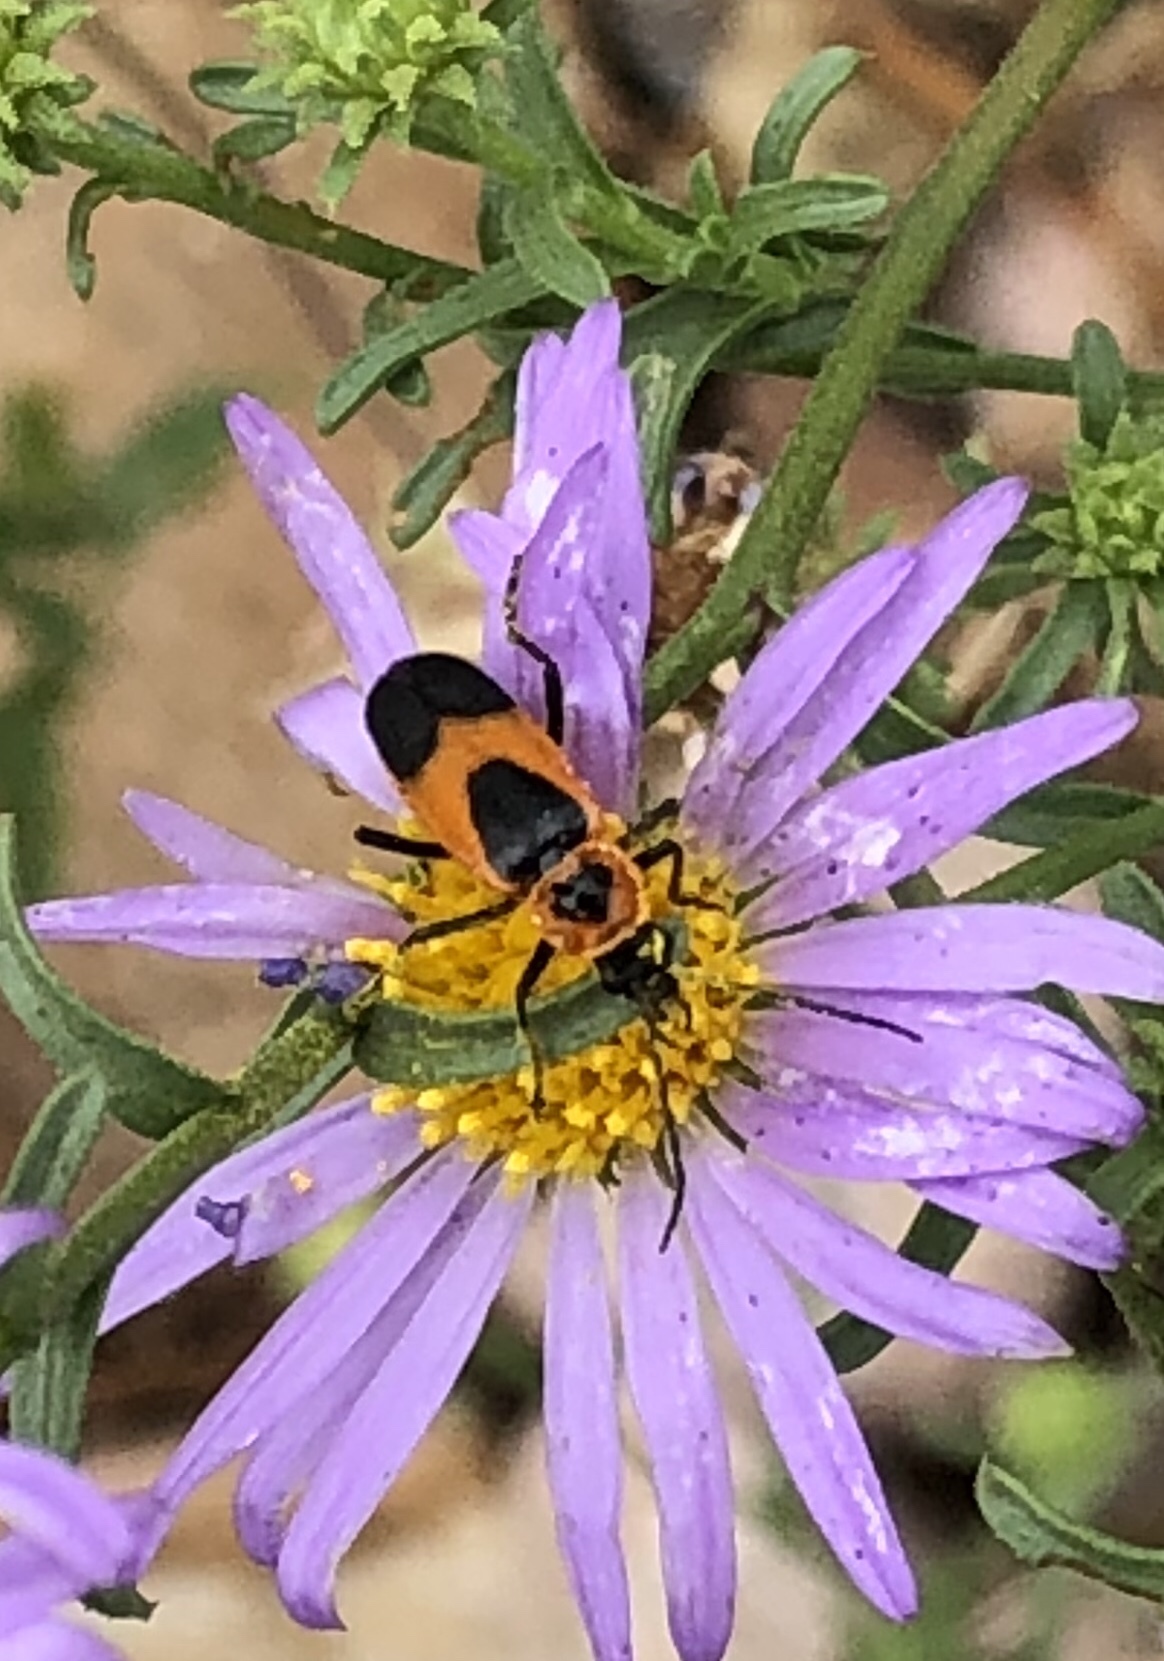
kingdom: Animalia
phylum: Arthropoda
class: Insecta
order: Coleoptera
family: Cantharidae
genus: Chauliognathus
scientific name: Chauliognathus basalis
